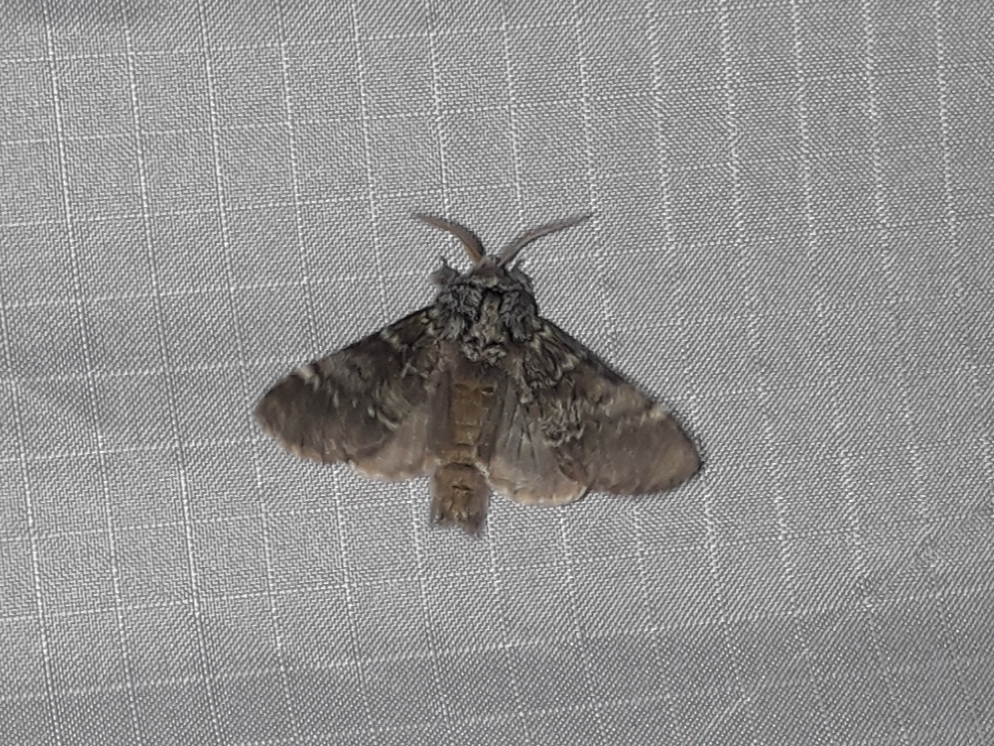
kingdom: Animalia
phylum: Arthropoda
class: Insecta
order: Lepidoptera
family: Notodontidae
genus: Drymonia
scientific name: Drymonia ruficornis
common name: Lunar marbled brown
